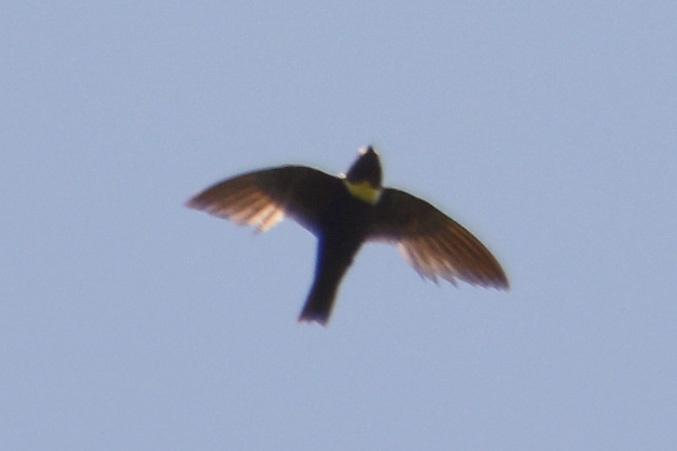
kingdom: Animalia
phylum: Chordata
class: Aves
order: Apodiformes
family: Apodidae
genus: Streptoprocne
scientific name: Streptoprocne zonaris
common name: White-collared swift
